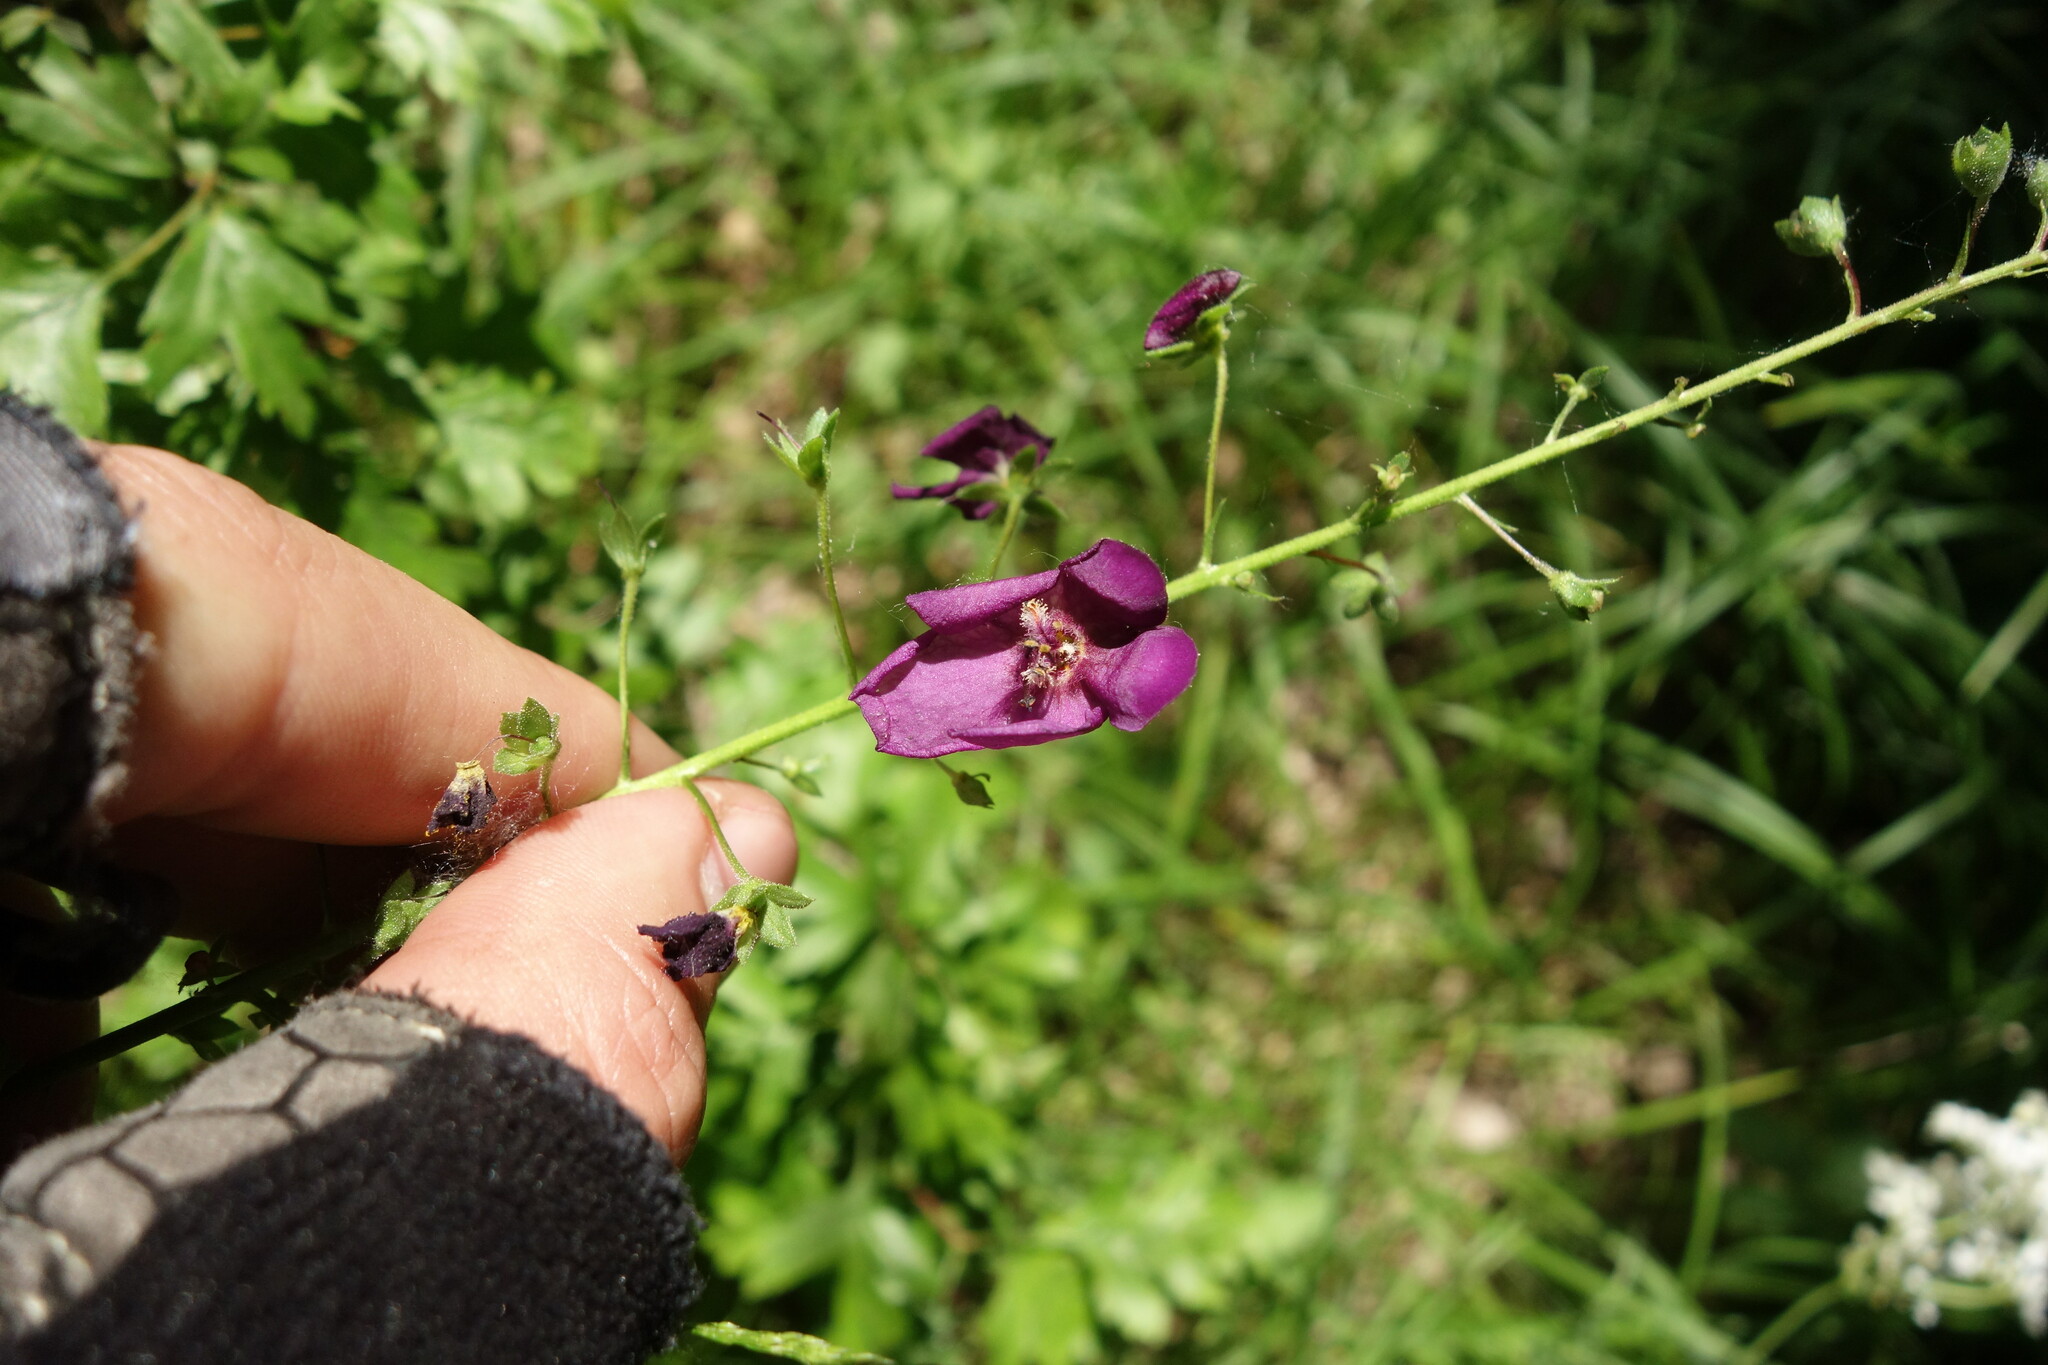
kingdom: Plantae
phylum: Tracheophyta
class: Magnoliopsida
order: Lamiales
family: Scrophulariaceae
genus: Verbascum
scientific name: Verbascum phoeniceum
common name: Purple mullein
